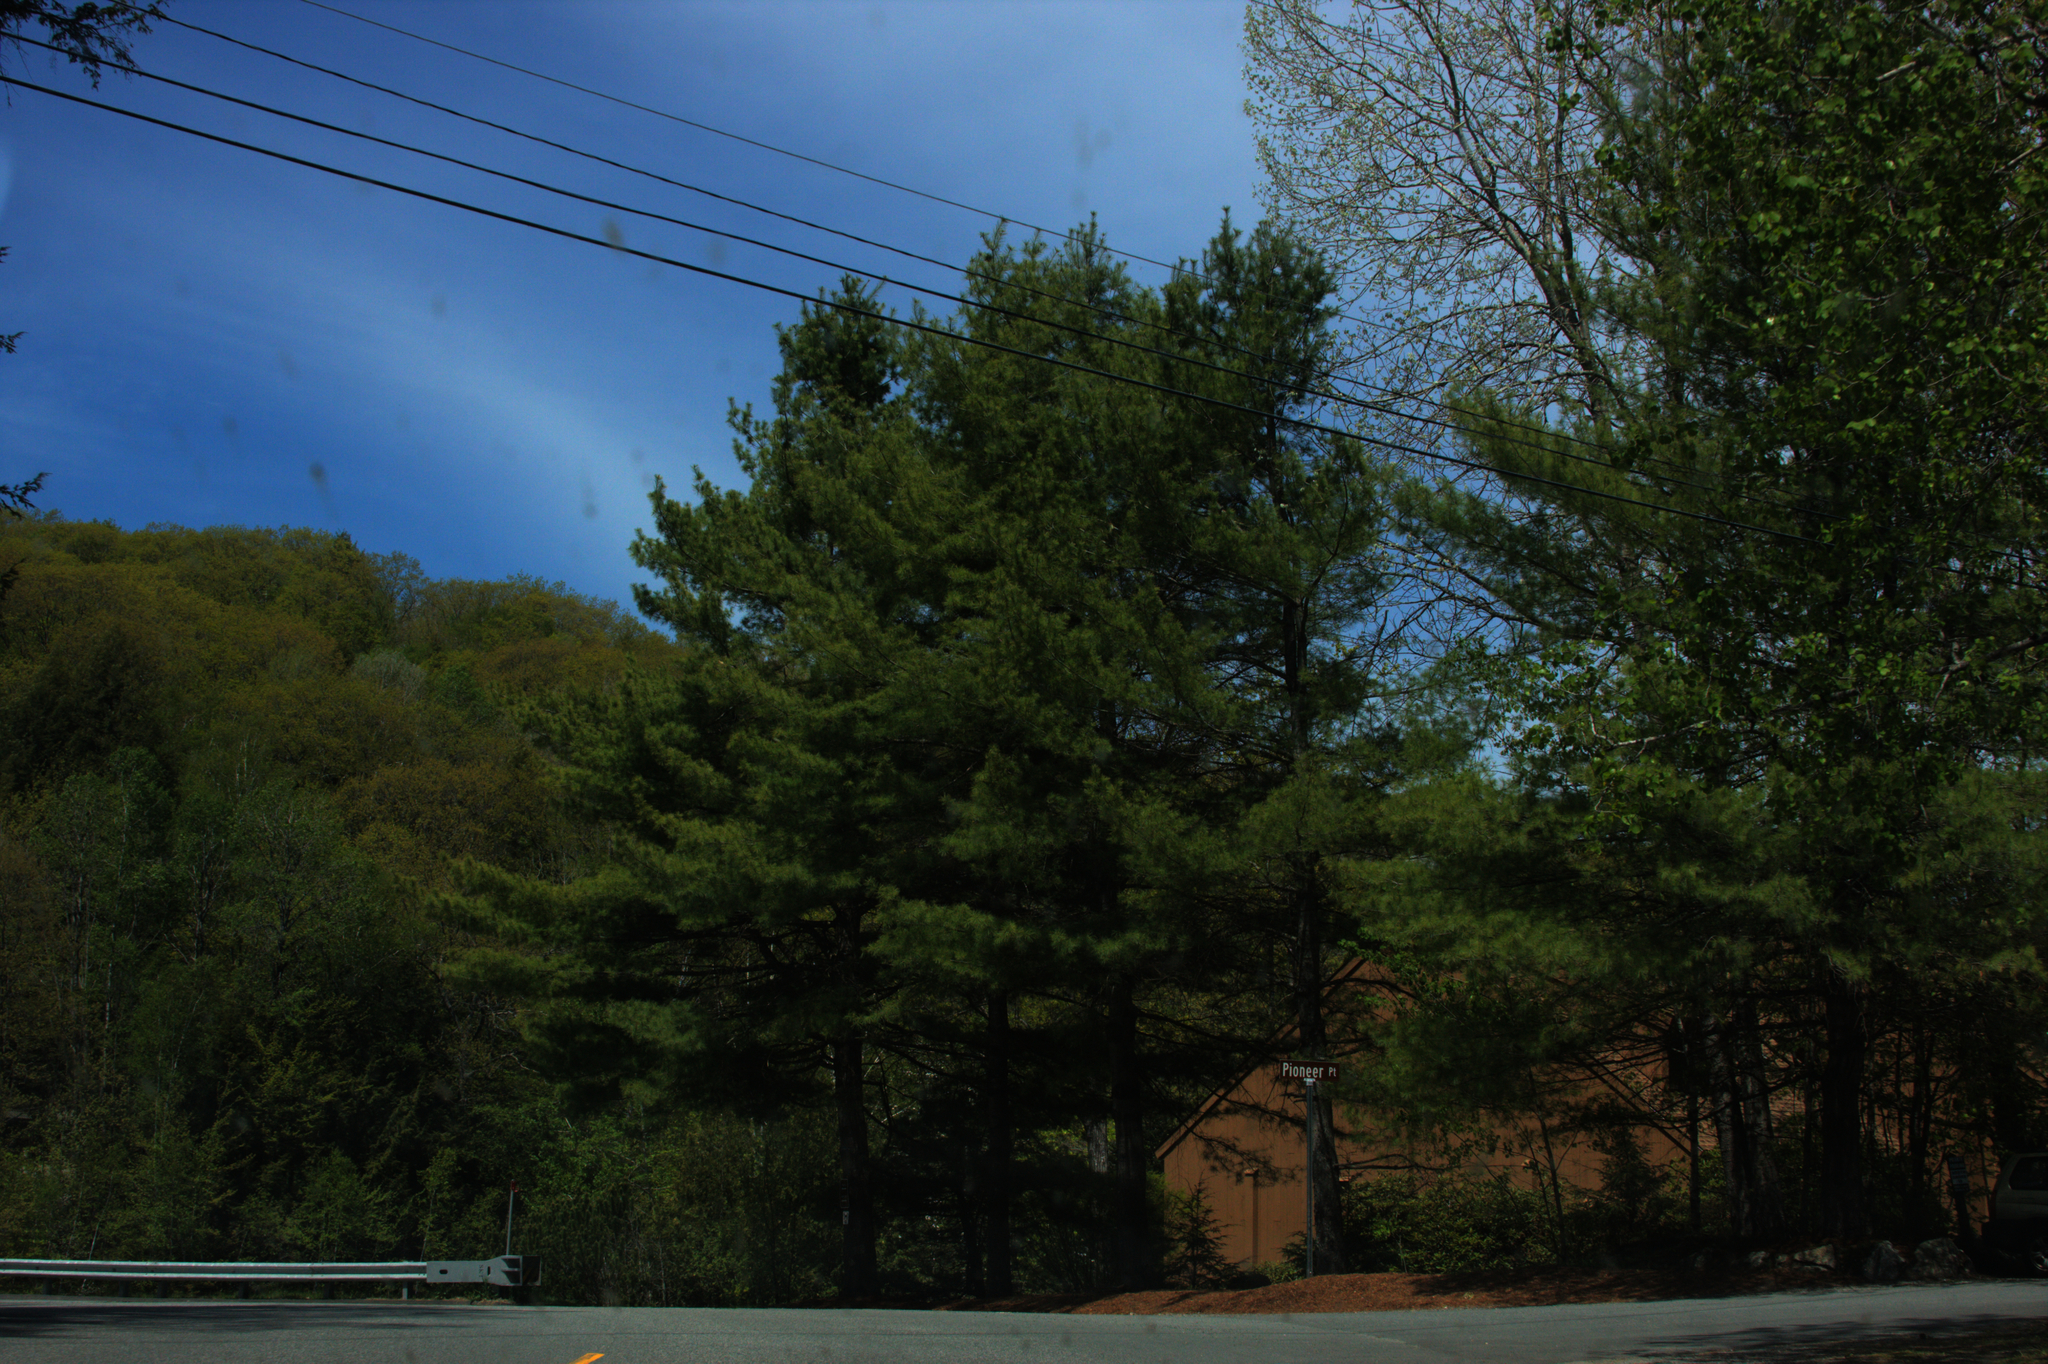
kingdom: Plantae
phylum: Tracheophyta
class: Pinopsida
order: Pinales
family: Pinaceae
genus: Pinus
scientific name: Pinus strobus
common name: Weymouth pine
